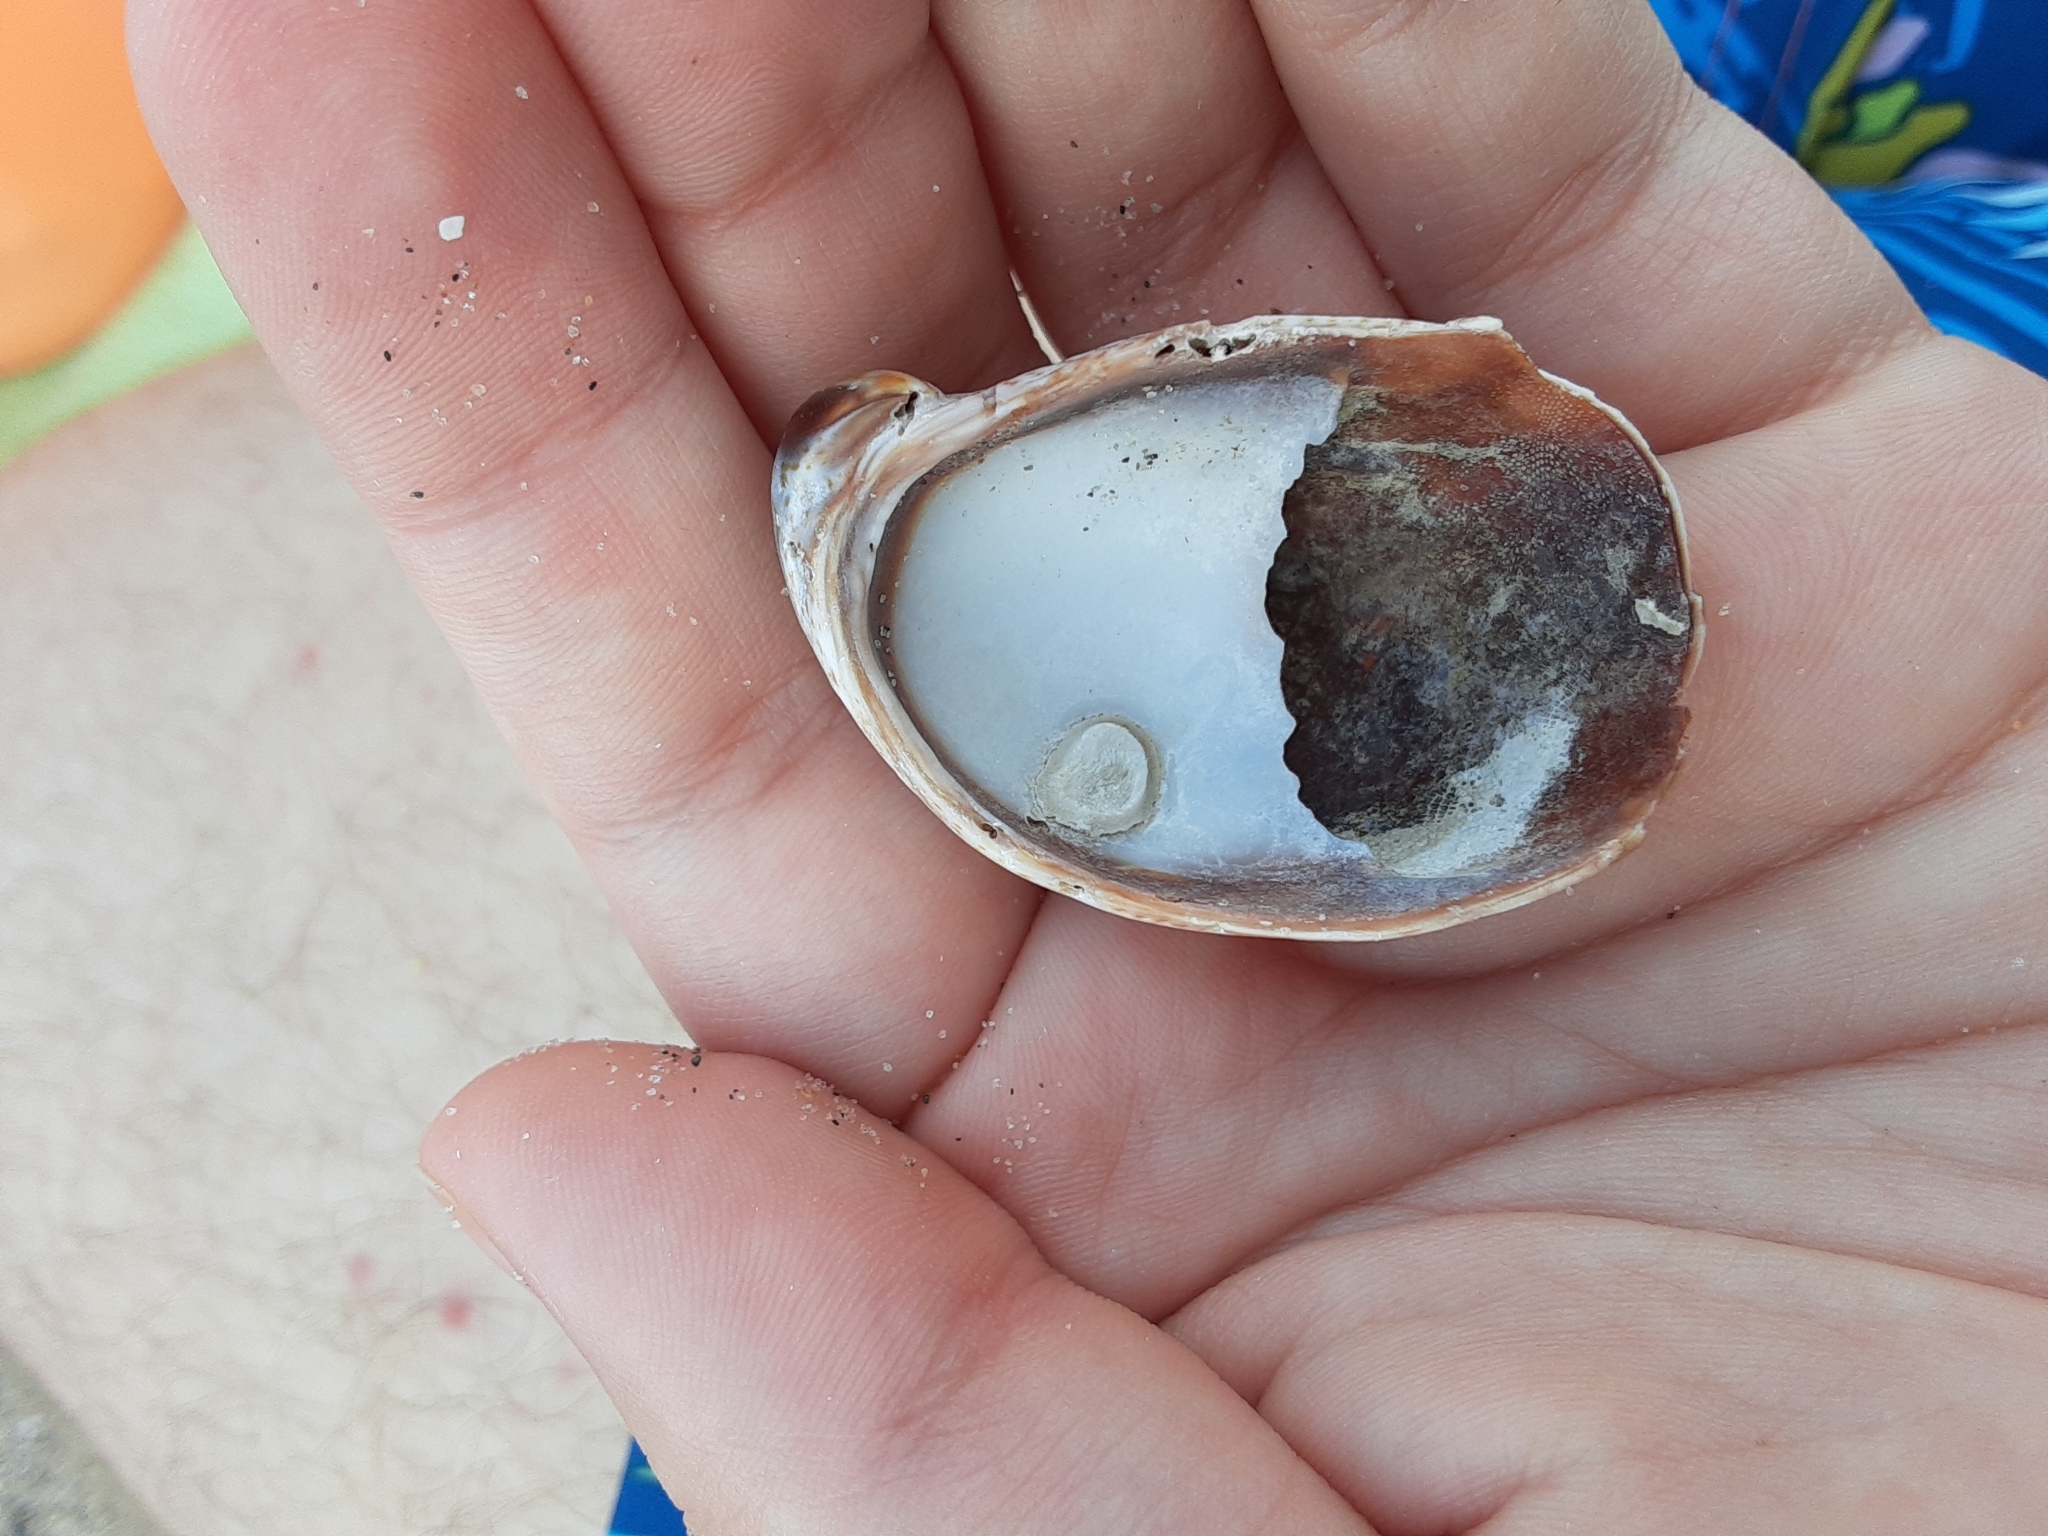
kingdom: Animalia
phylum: Mollusca
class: Gastropoda
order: Littorinimorpha
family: Calyptraeidae
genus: Crepidula
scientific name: Crepidula fornicata
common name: Slipper limpet
